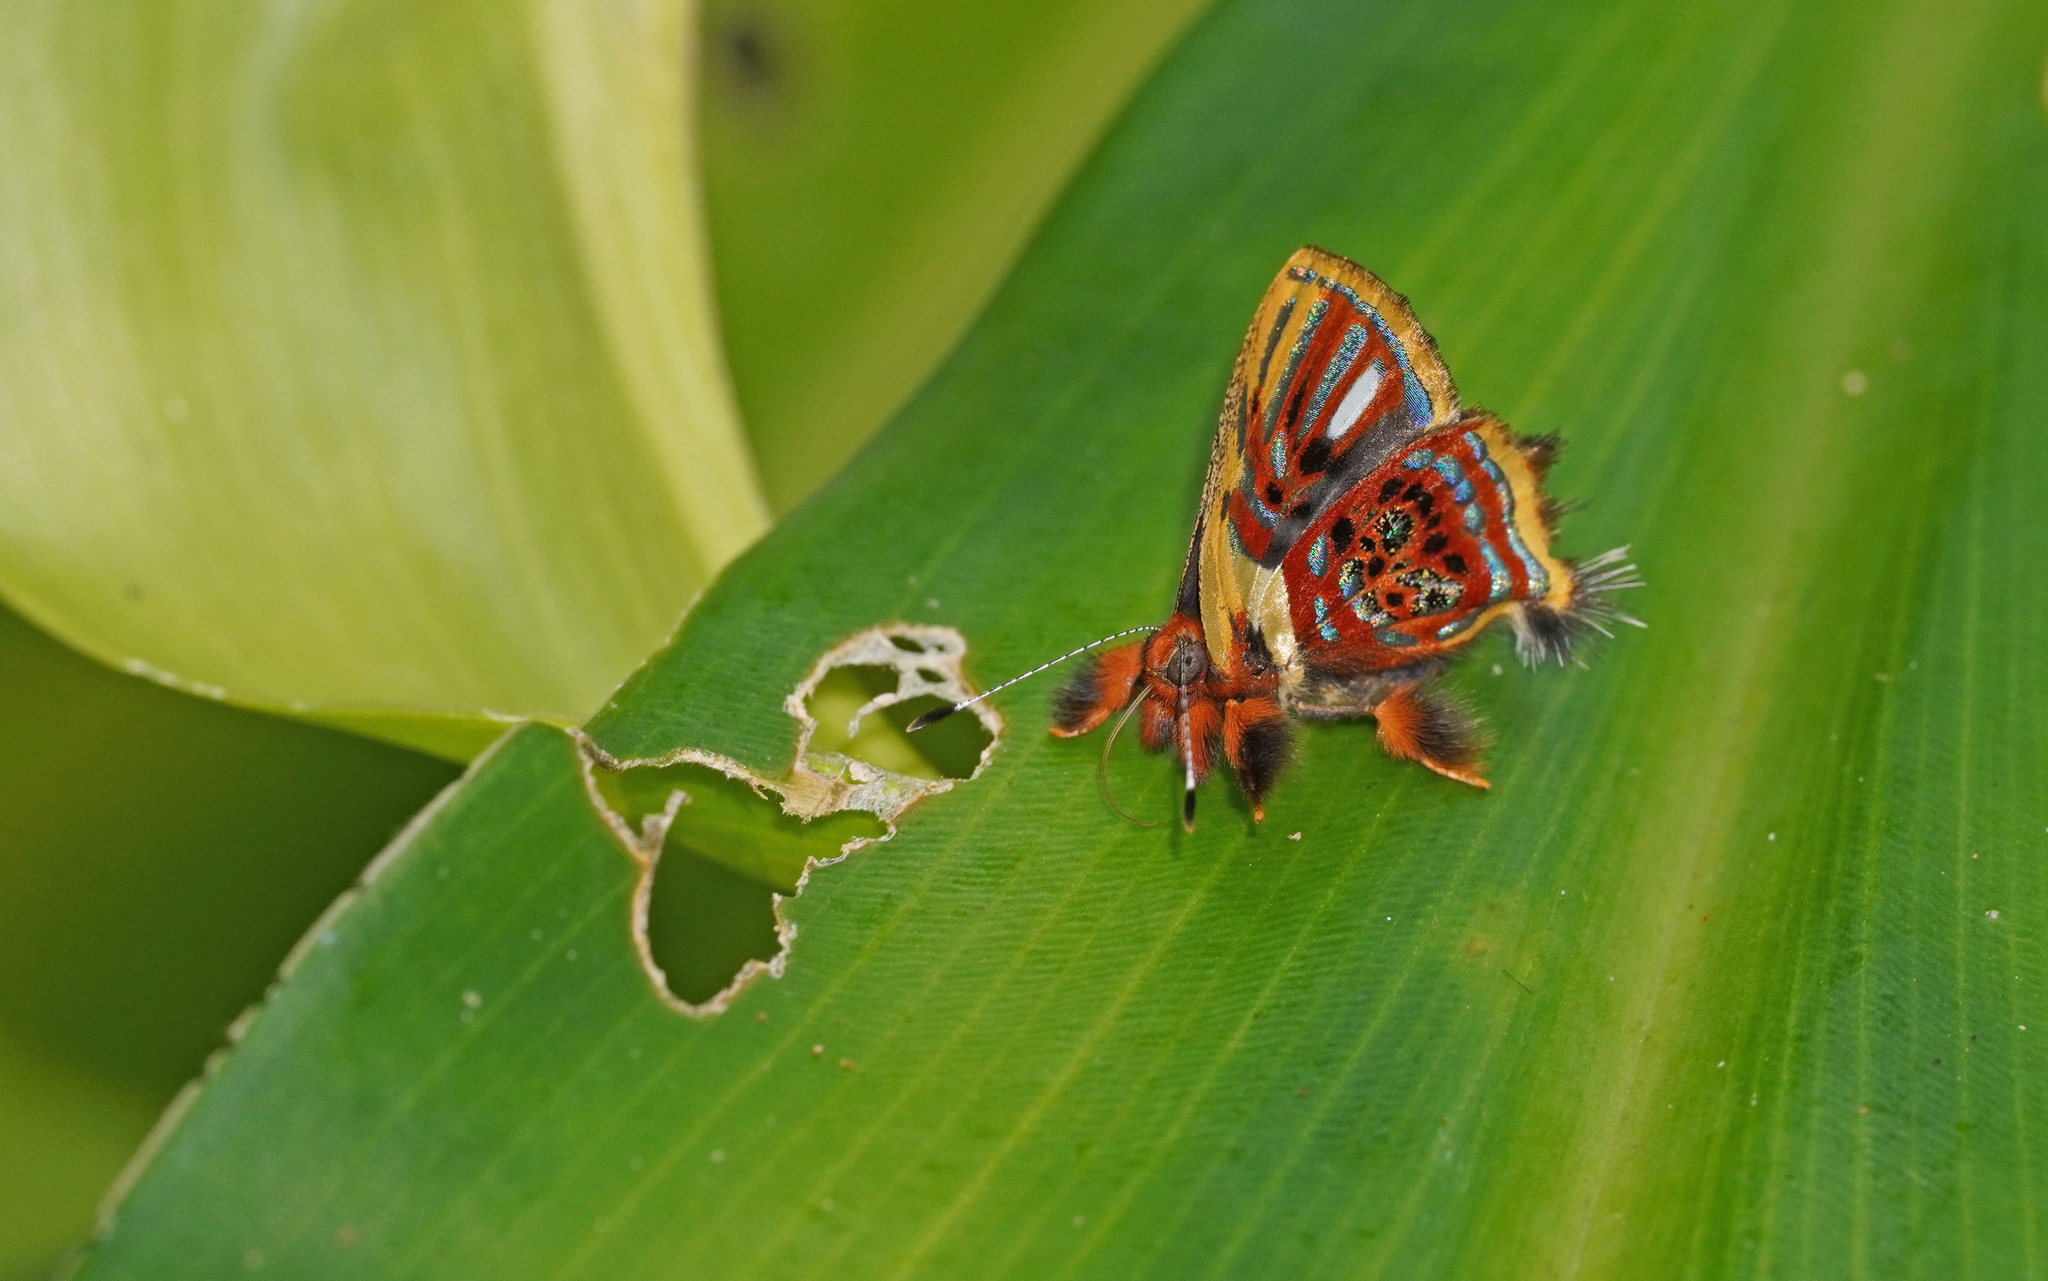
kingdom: Animalia
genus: Anteros
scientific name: Anteros aerosus
